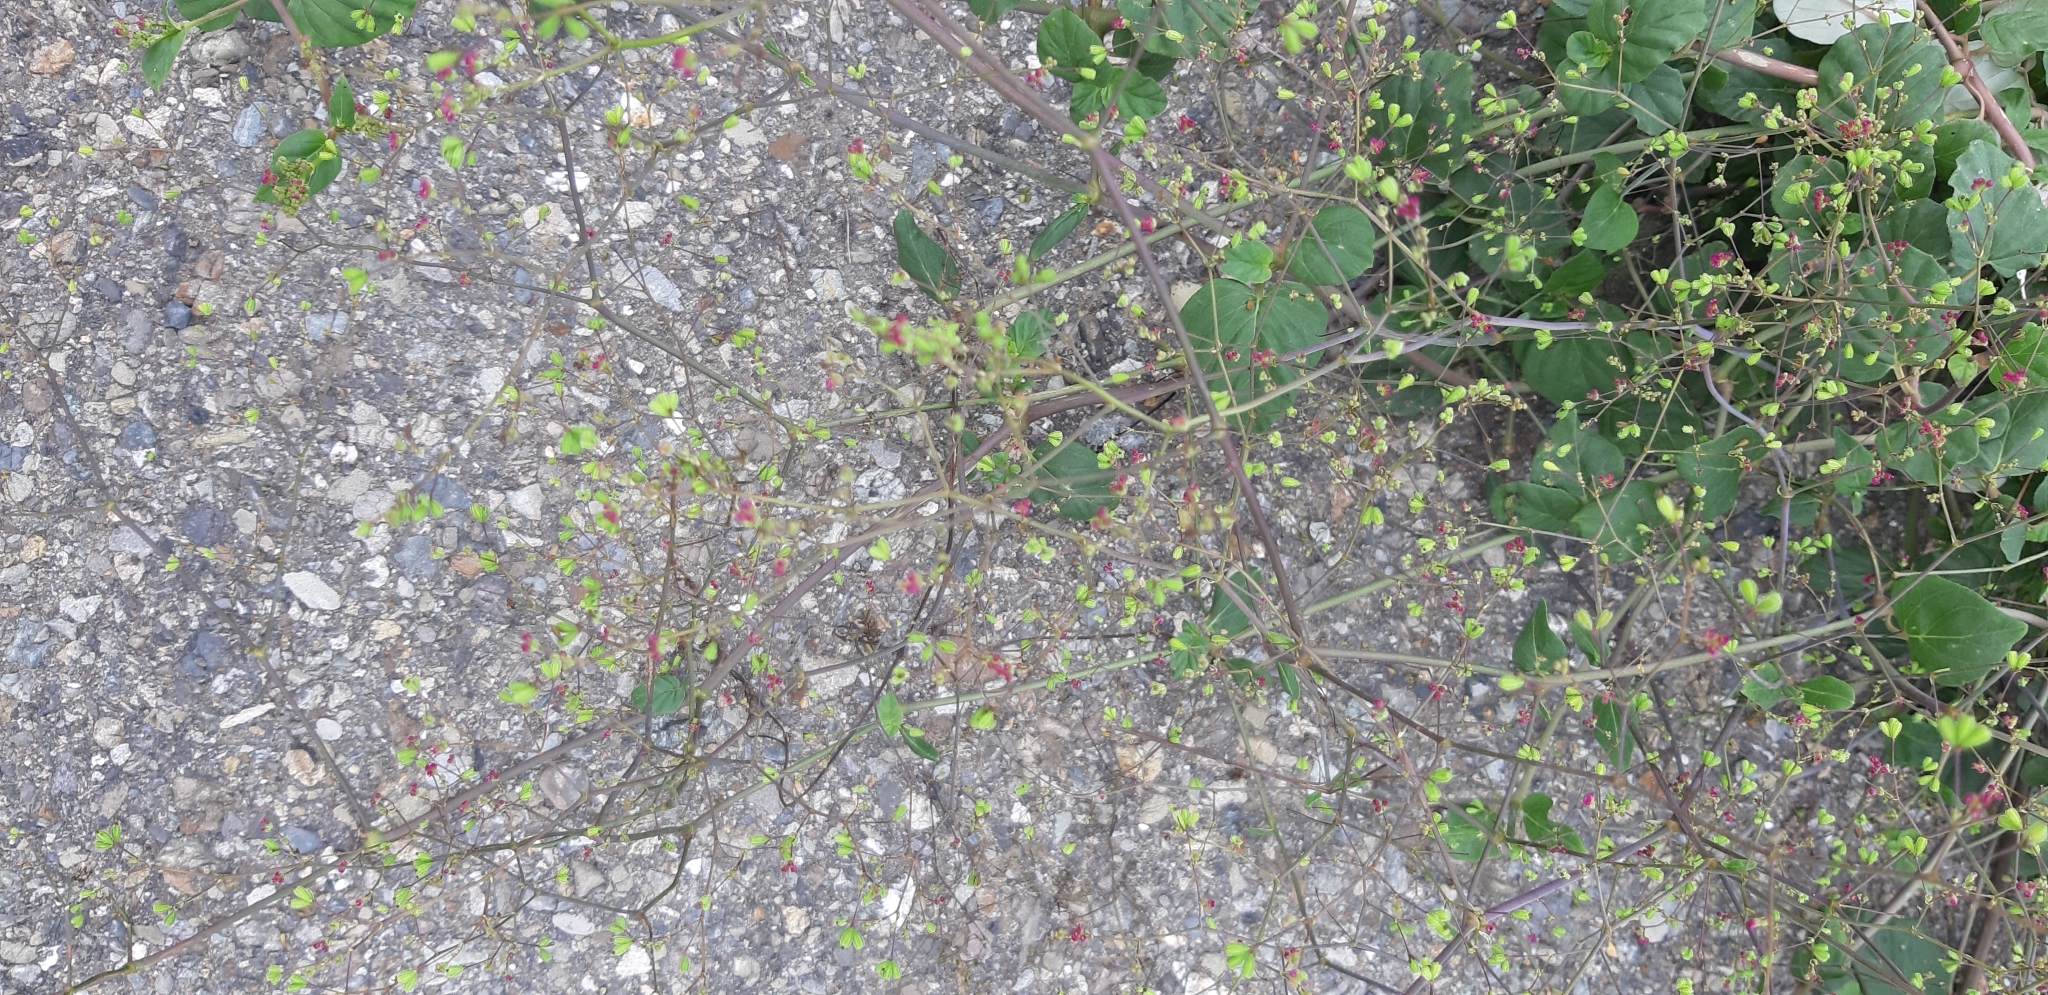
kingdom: Plantae
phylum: Tracheophyta
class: Magnoliopsida
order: Caryophyllales
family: Nyctaginaceae
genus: Boerhavia
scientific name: Boerhavia coccinea
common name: Scarlet spiderling
